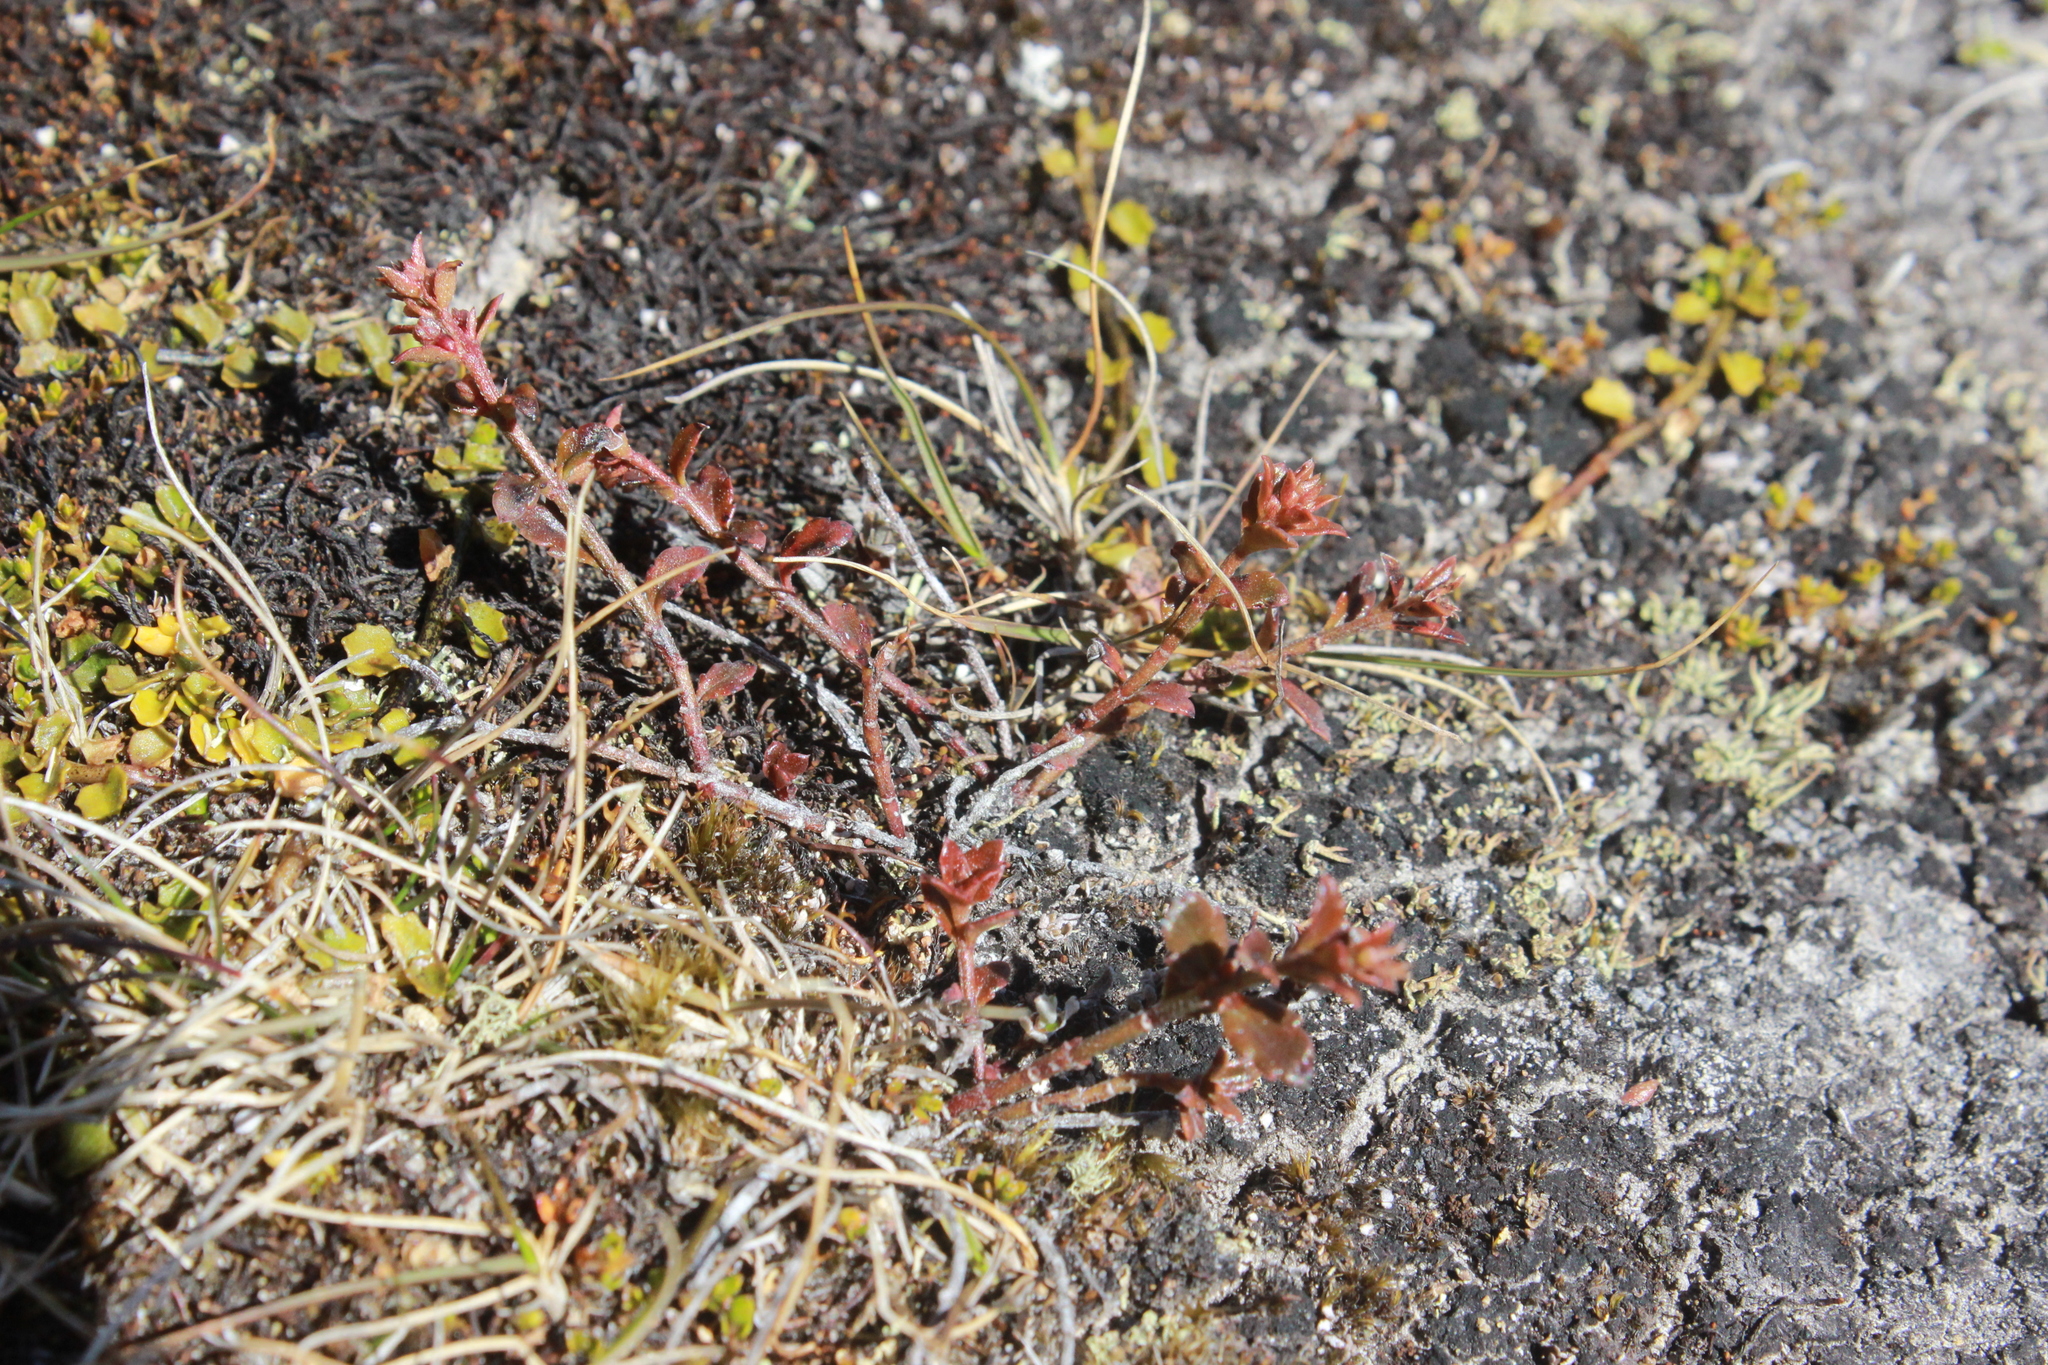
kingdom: Plantae
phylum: Tracheophyta
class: Magnoliopsida
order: Saxifragales
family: Haloragaceae
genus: Gonocarpus
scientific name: Gonocarpus incanus
